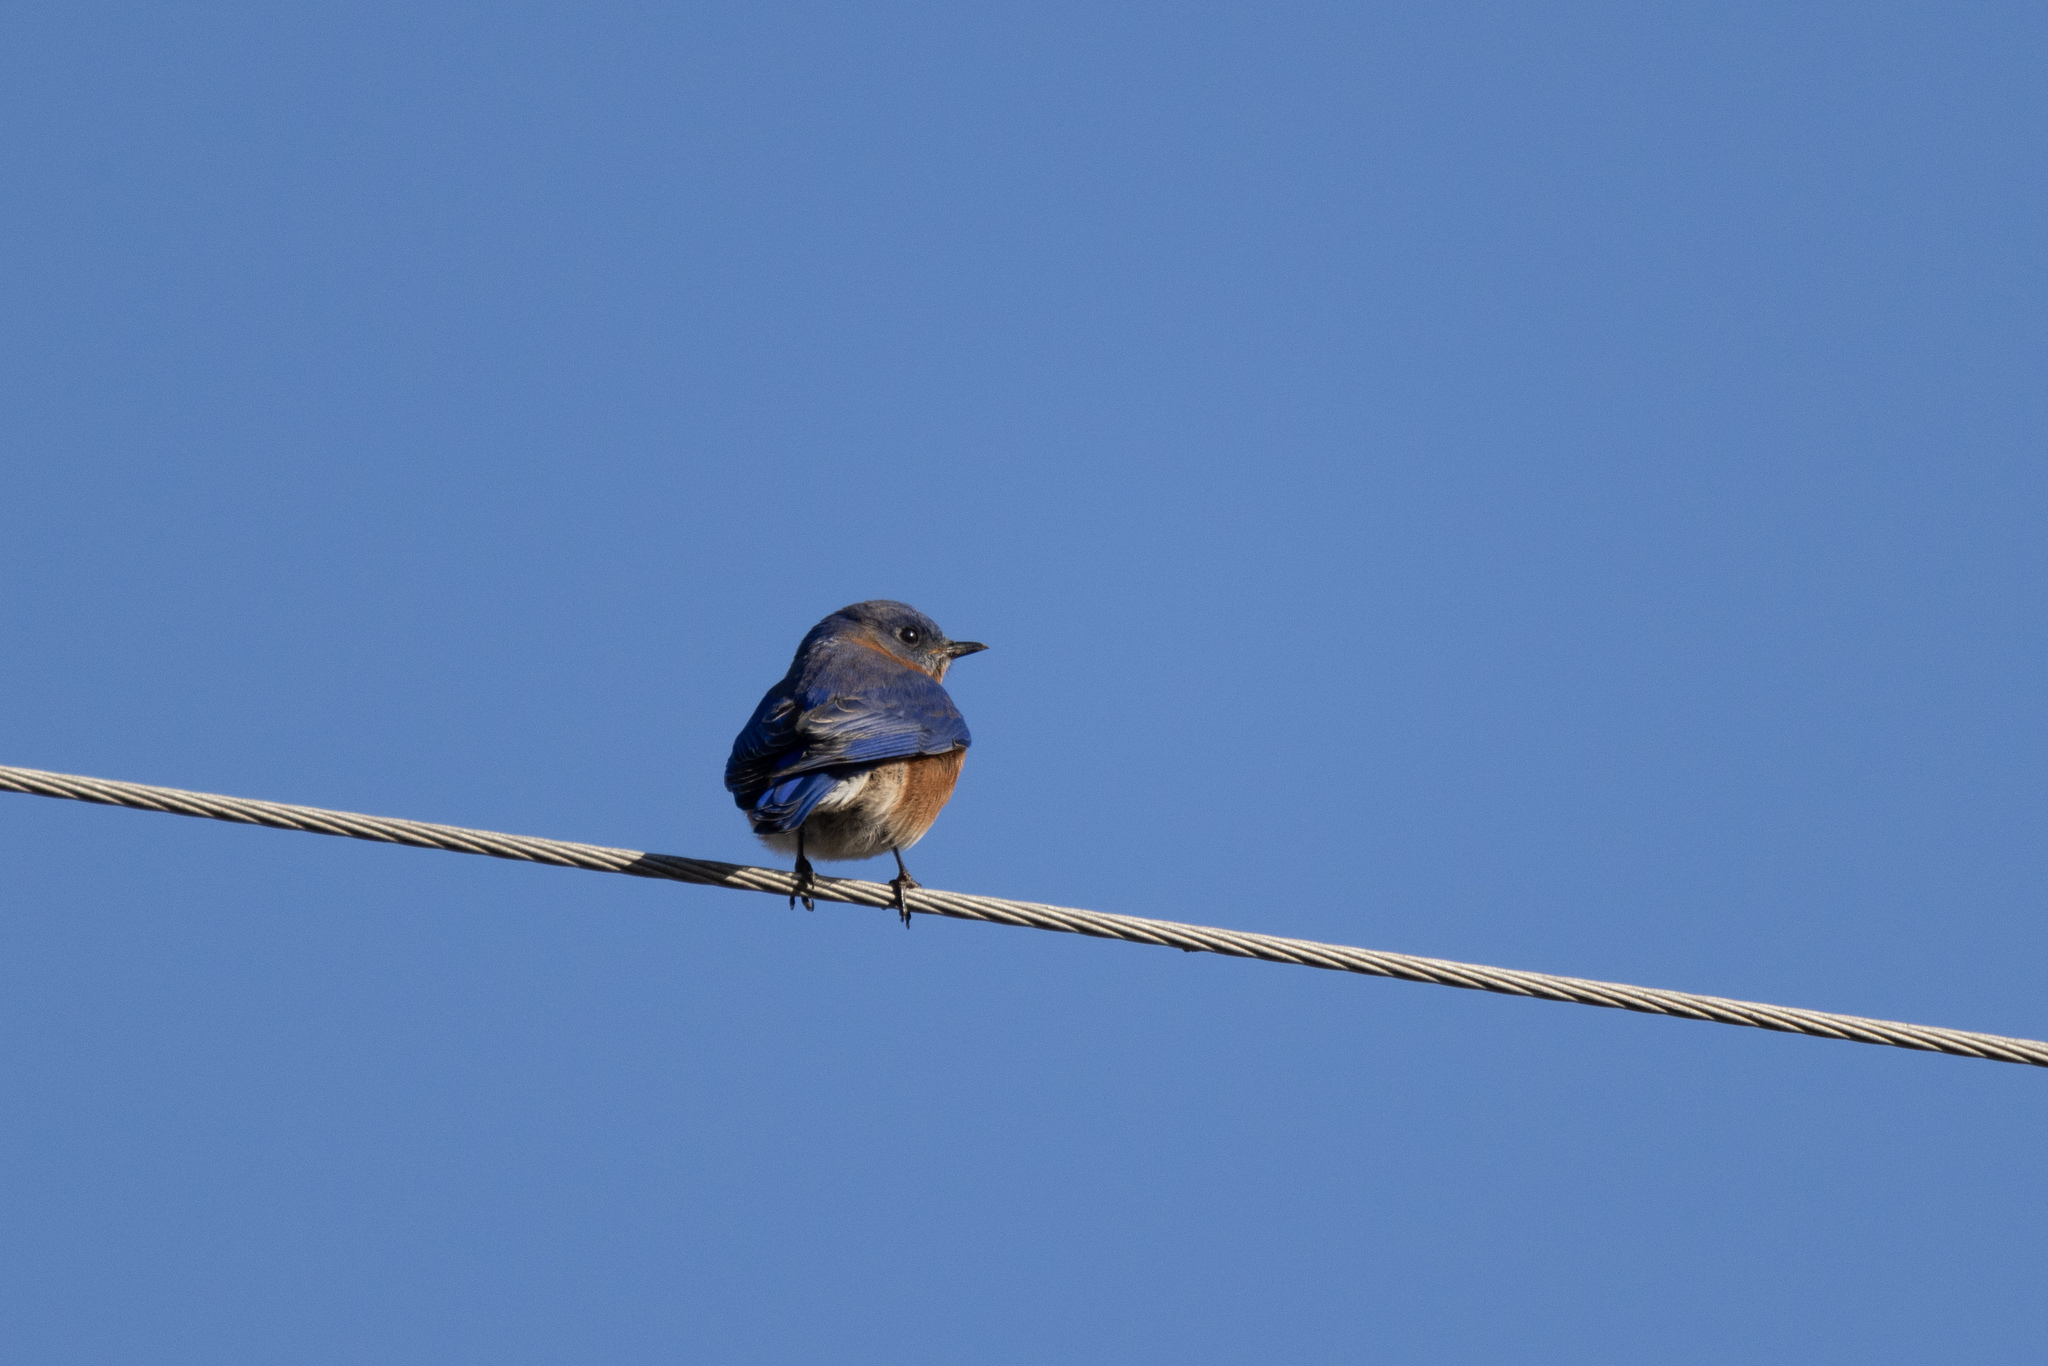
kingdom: Animalia
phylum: Chordata
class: Aves
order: Passeriformes
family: Turdidae
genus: Sialia
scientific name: Sialia sialis
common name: Eastern bluebird
